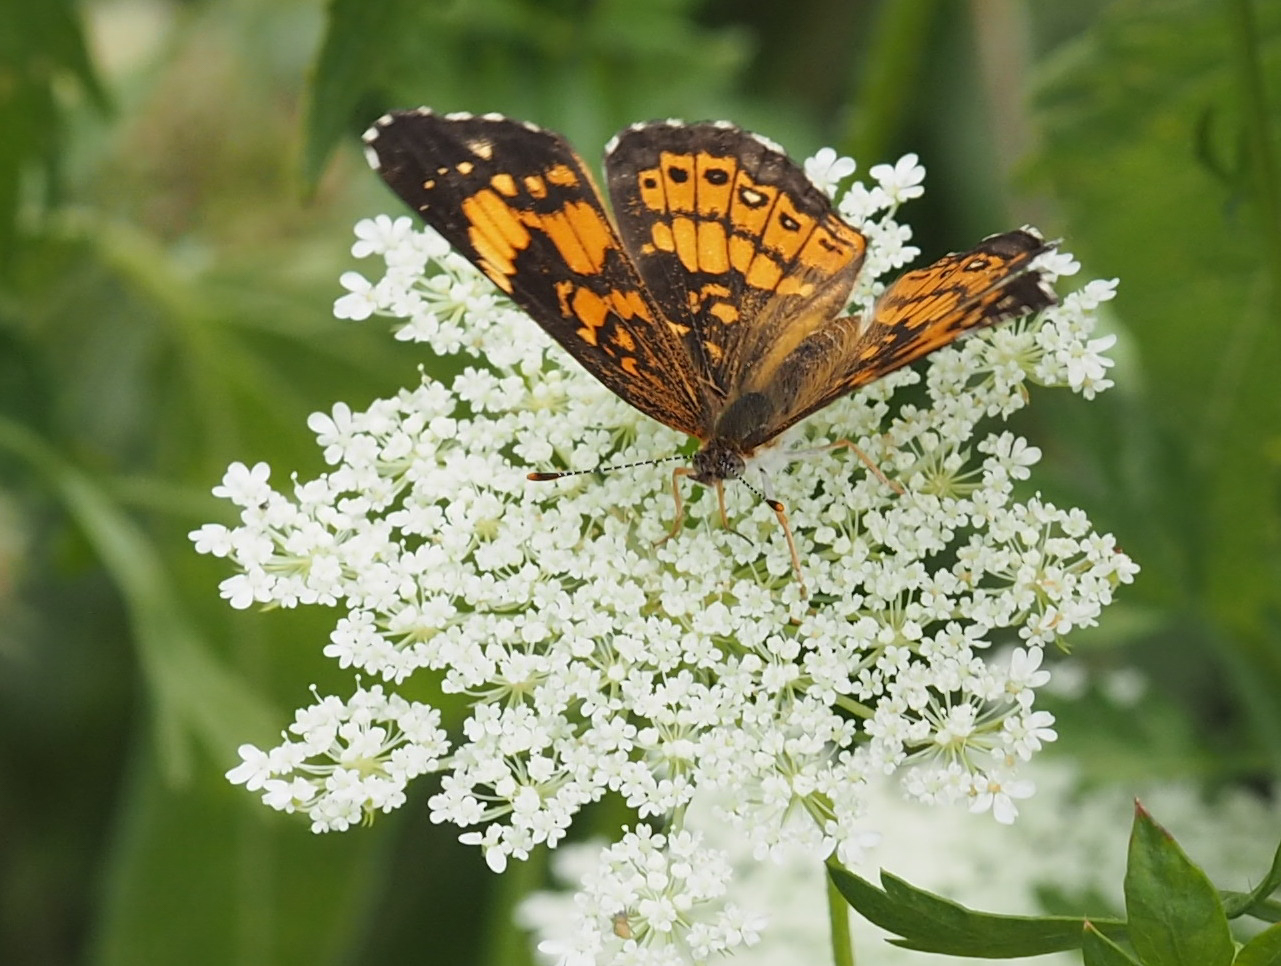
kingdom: Animalia
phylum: Arthropoda
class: Insecta
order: Lepidoptera
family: Nymphalidae
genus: Chlosyne
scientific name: Chlosyne nycteis
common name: Silvery checkerspot
